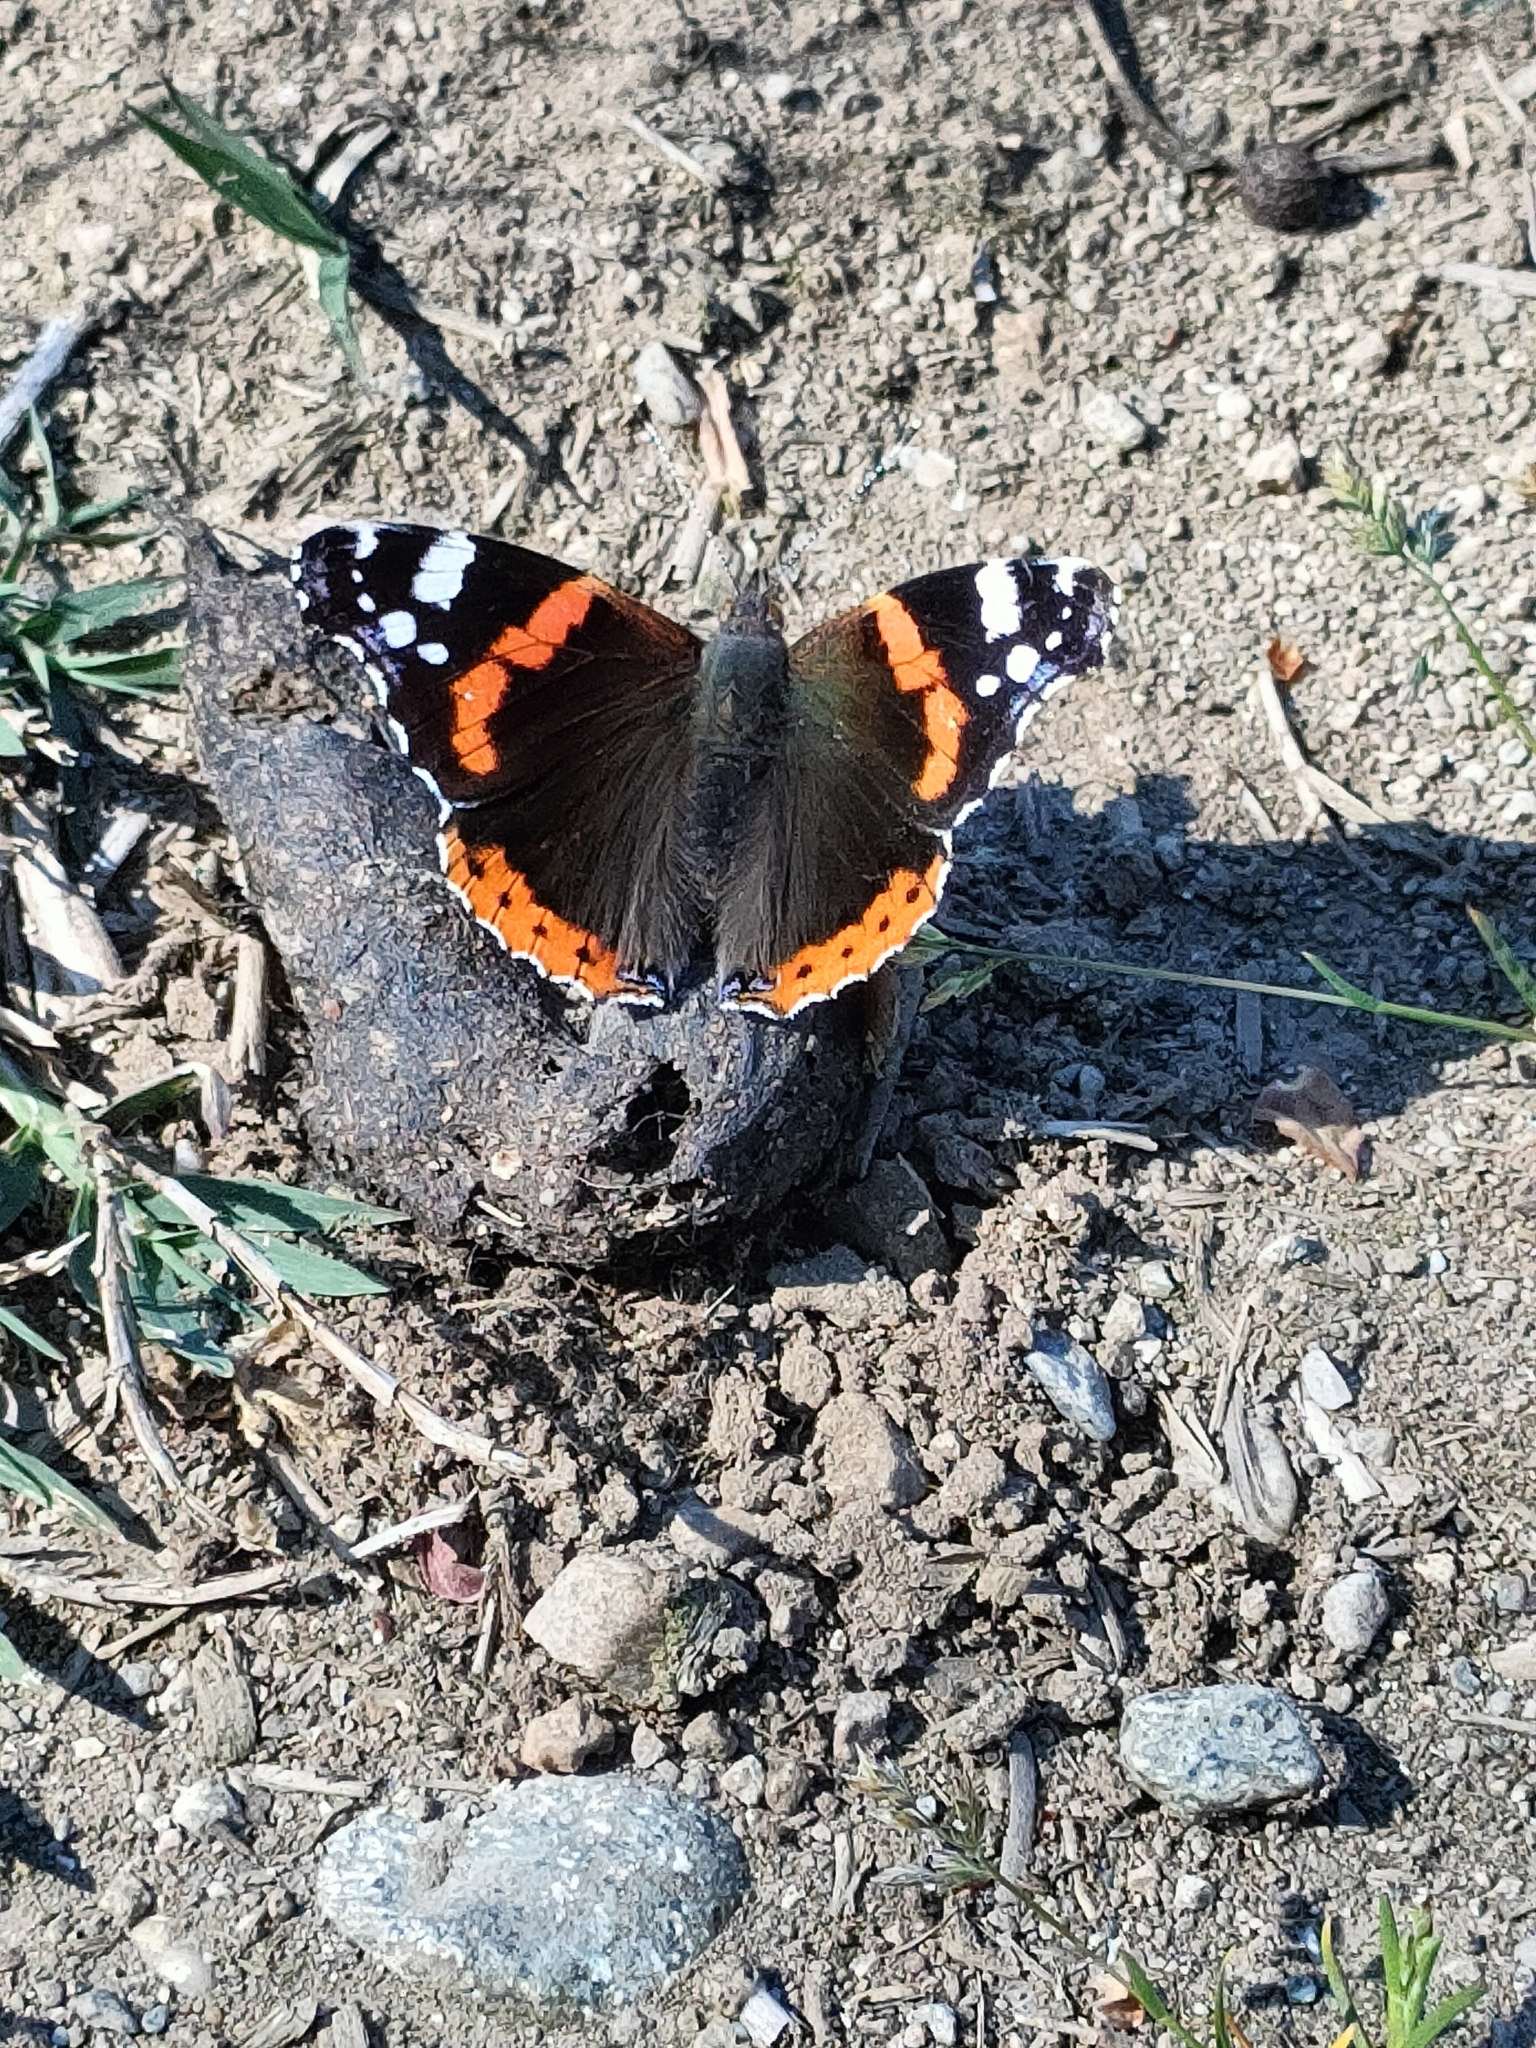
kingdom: Animalia
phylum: Arthropoda
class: Insecta
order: Lepidoptera
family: Nymphalidae
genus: Vanessa
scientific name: Vanessa atalanta
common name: Red admiral
